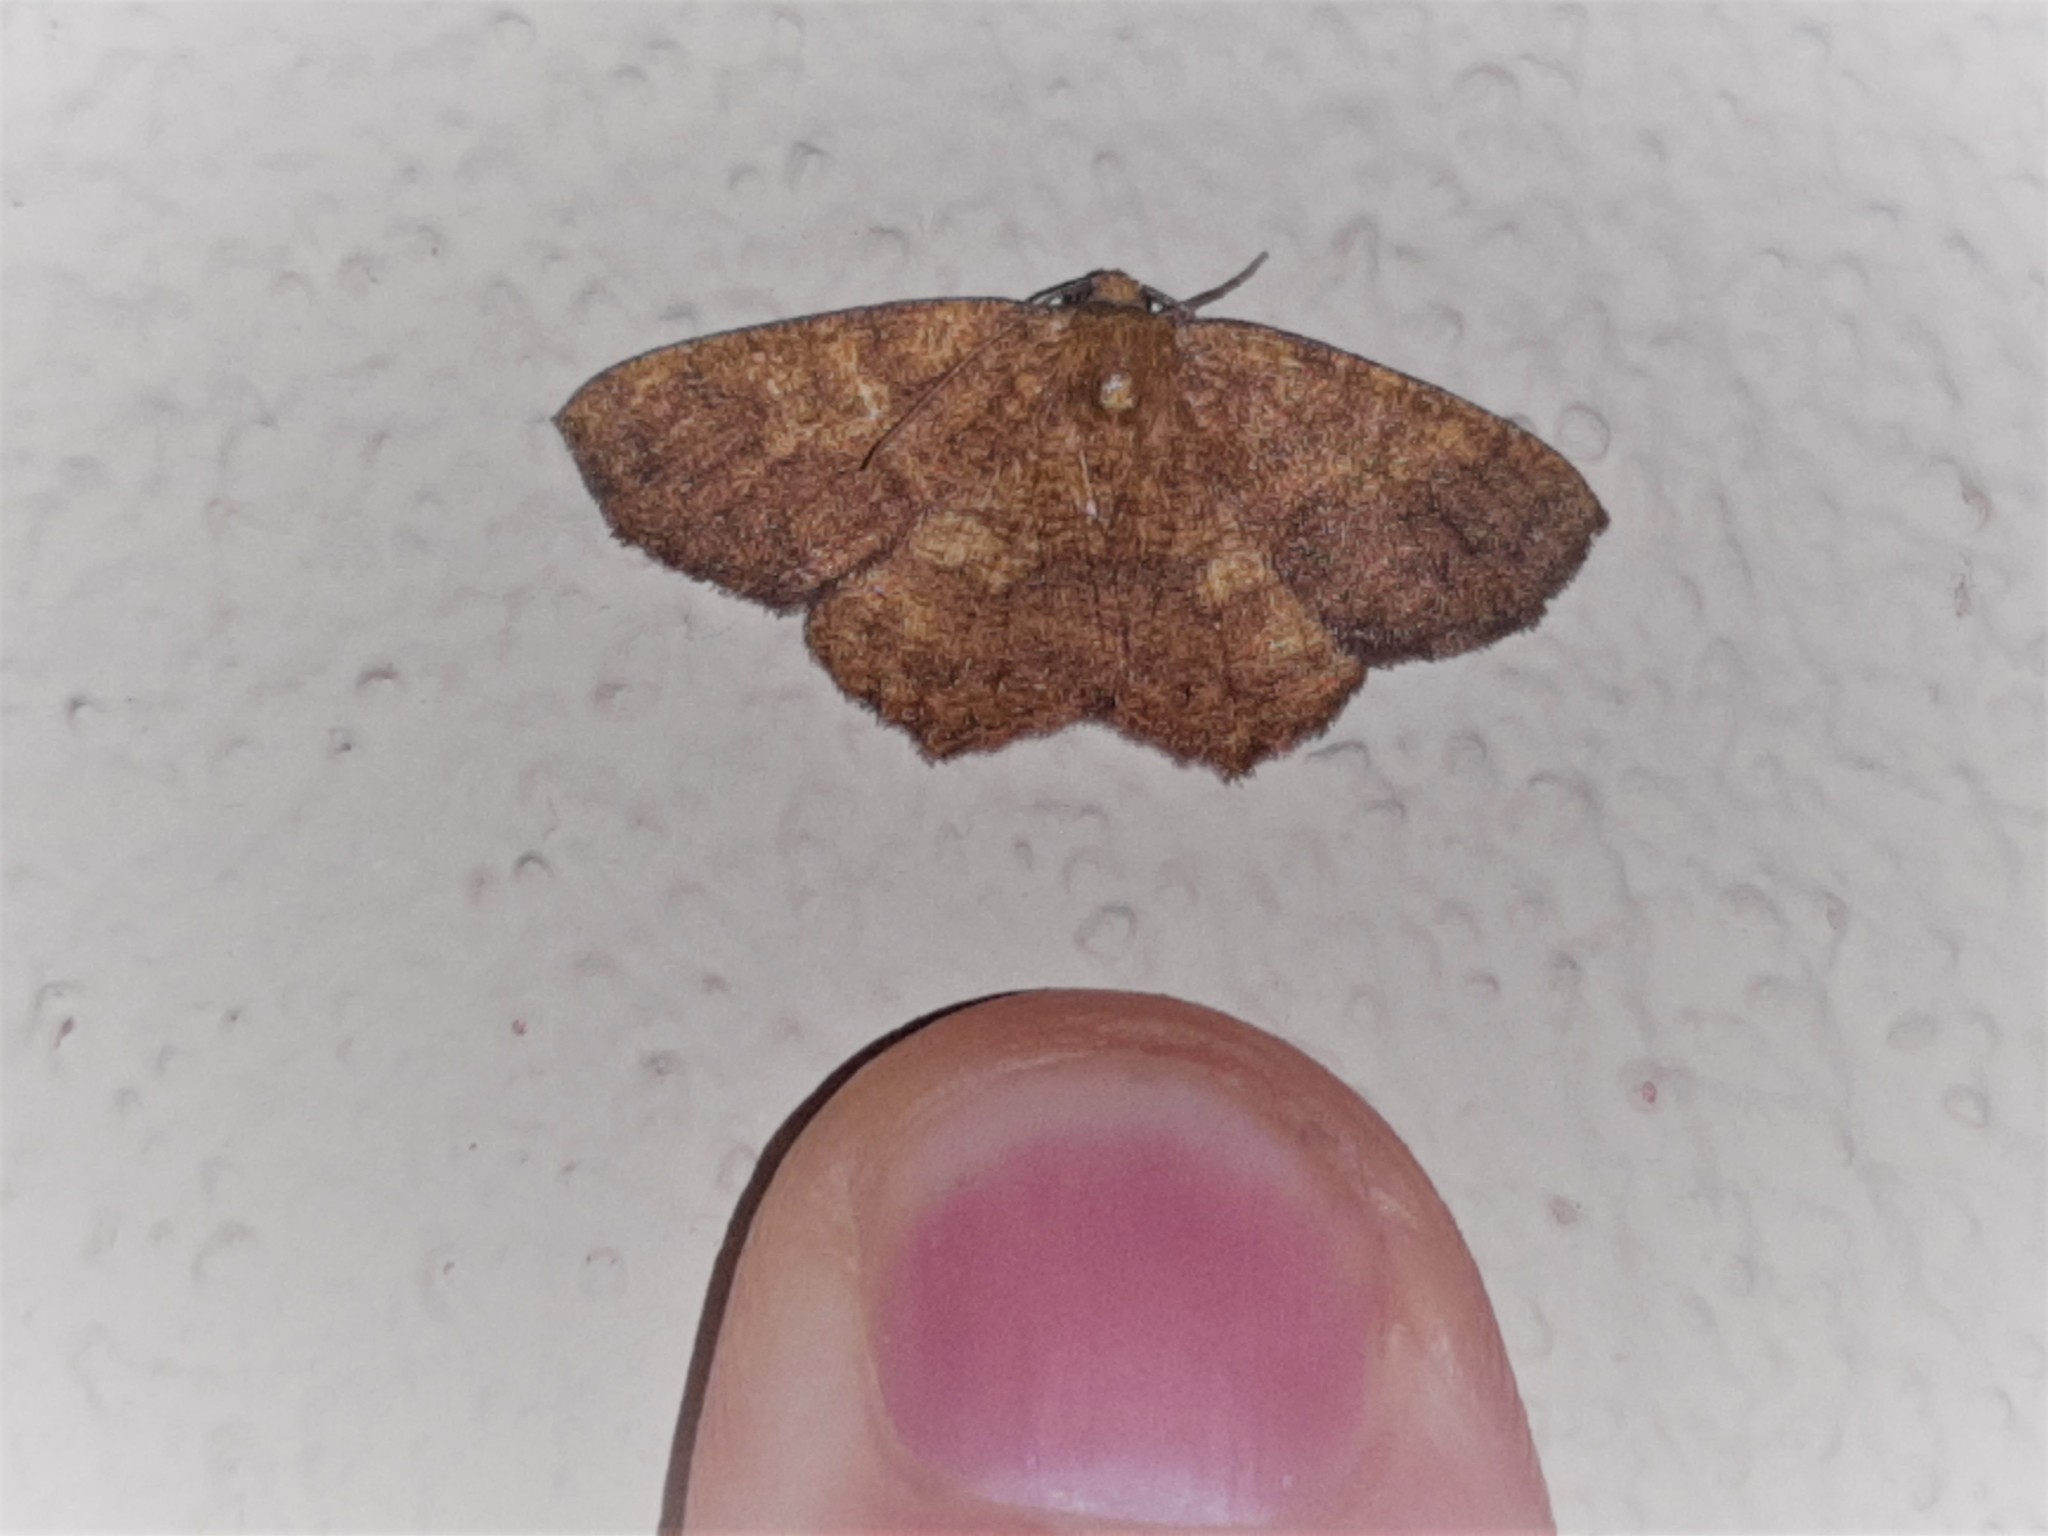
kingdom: Animalia
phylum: Arthropoda
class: Insecta
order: Lepidoptera
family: Geometridae
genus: Periclina
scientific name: Periclina merana
